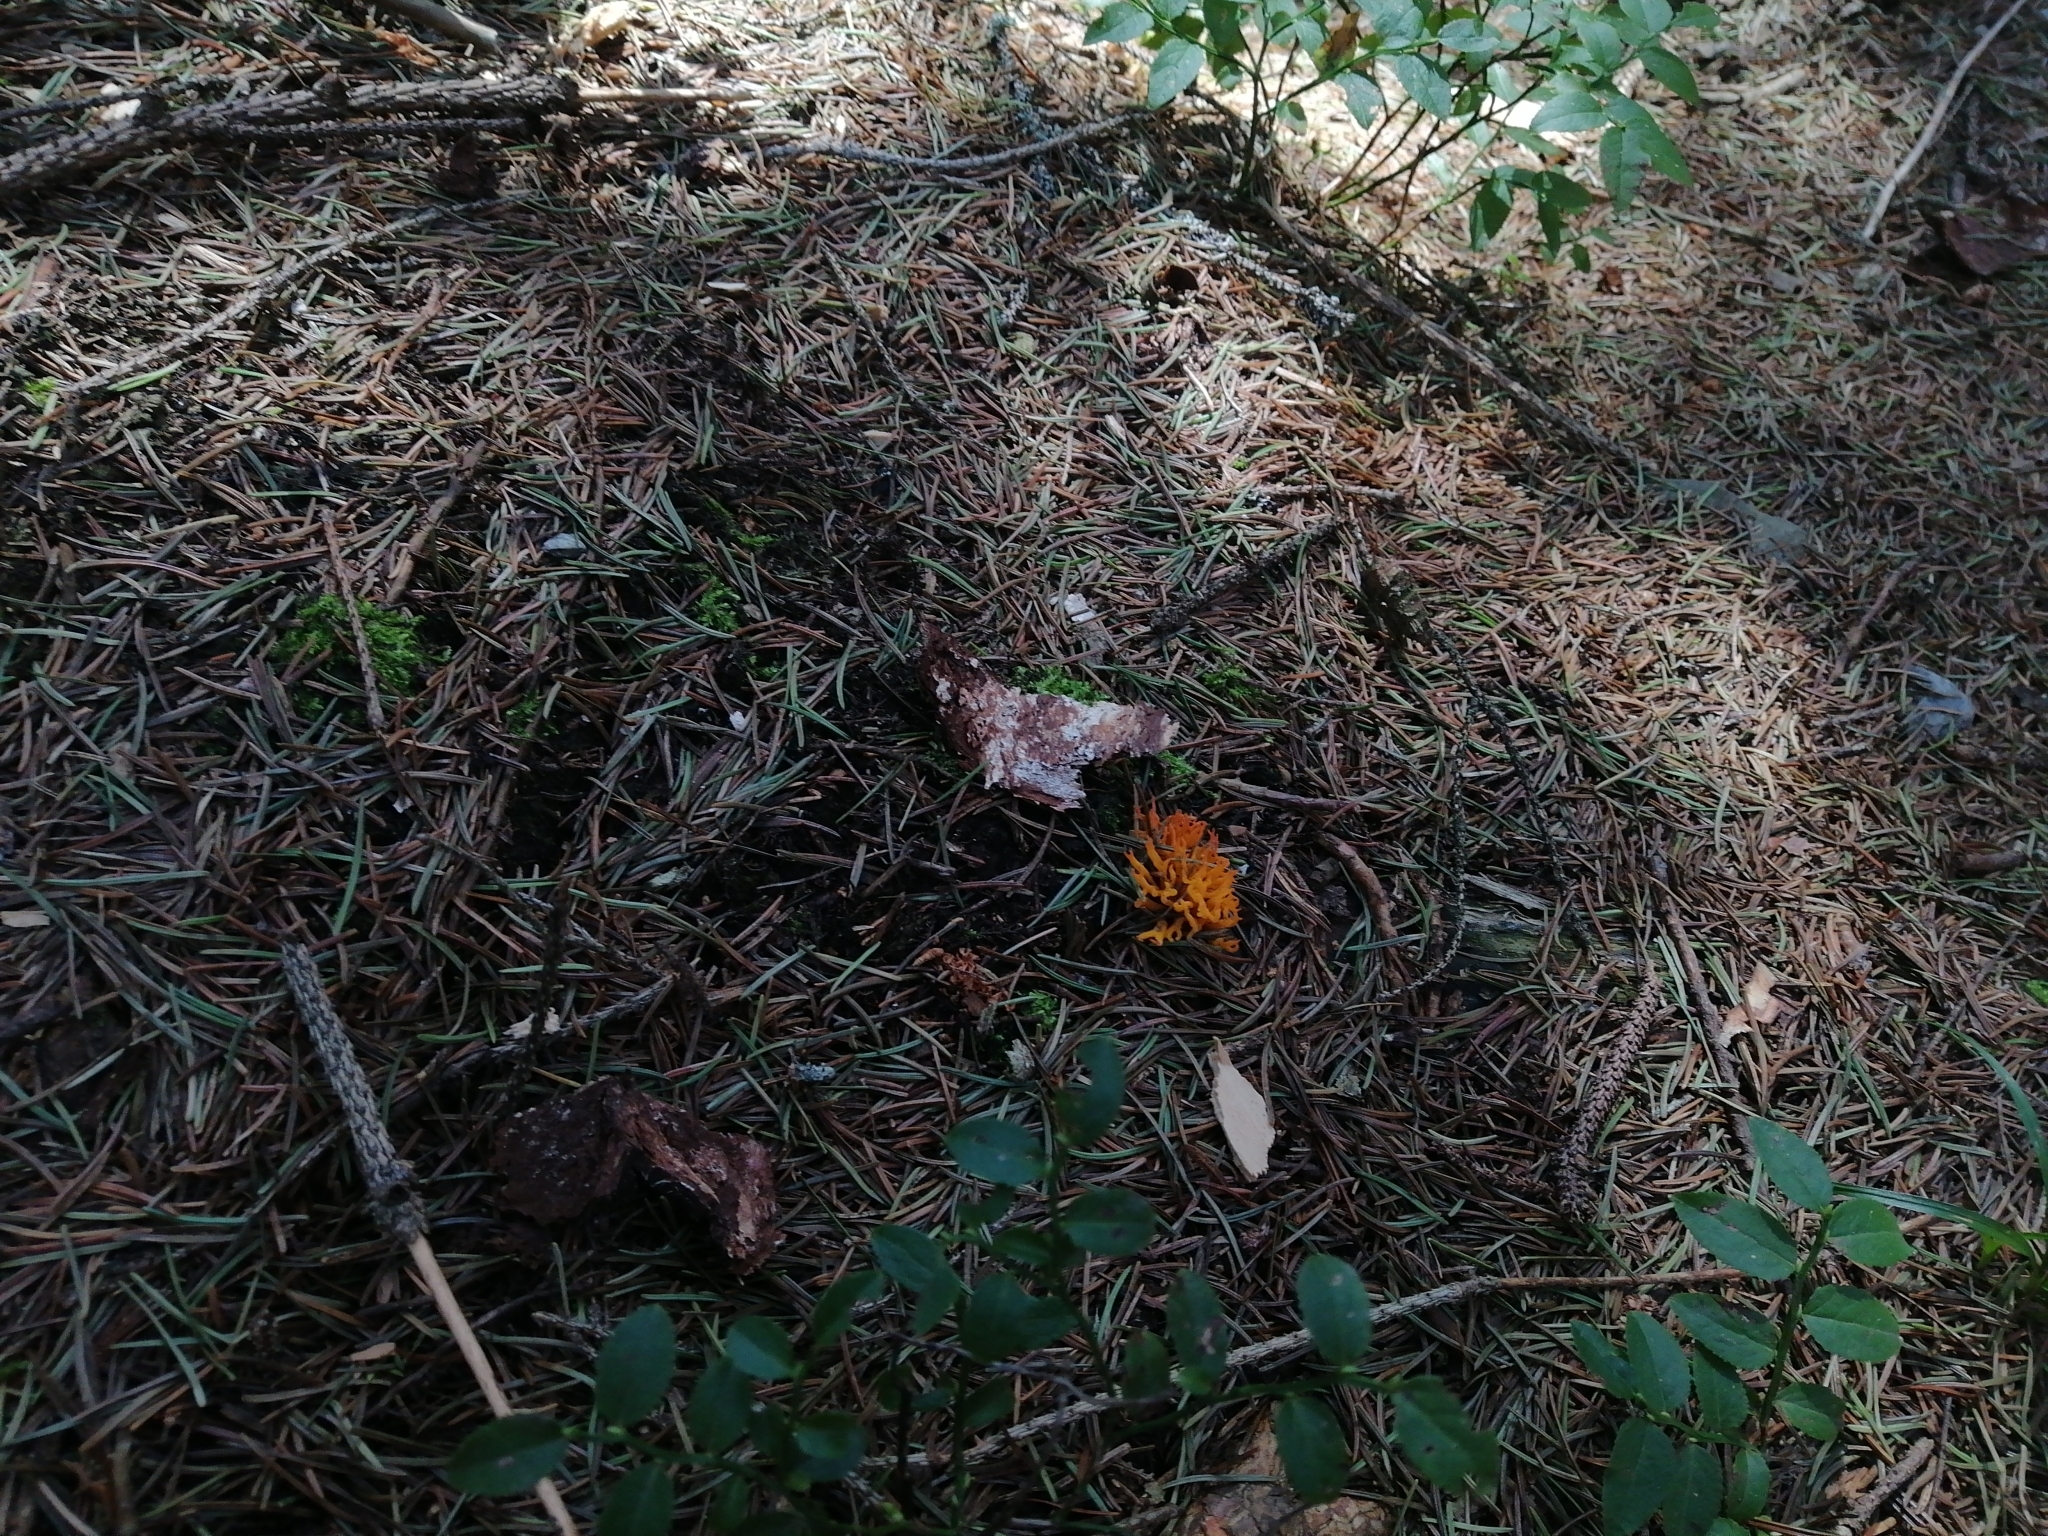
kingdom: Fungi
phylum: Basidiomycota
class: Dacrymycetes
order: Dacrymycetales
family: Dacrymycetaceae
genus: Calocera
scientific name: Calocera viscosa
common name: Yellow stagshorn
